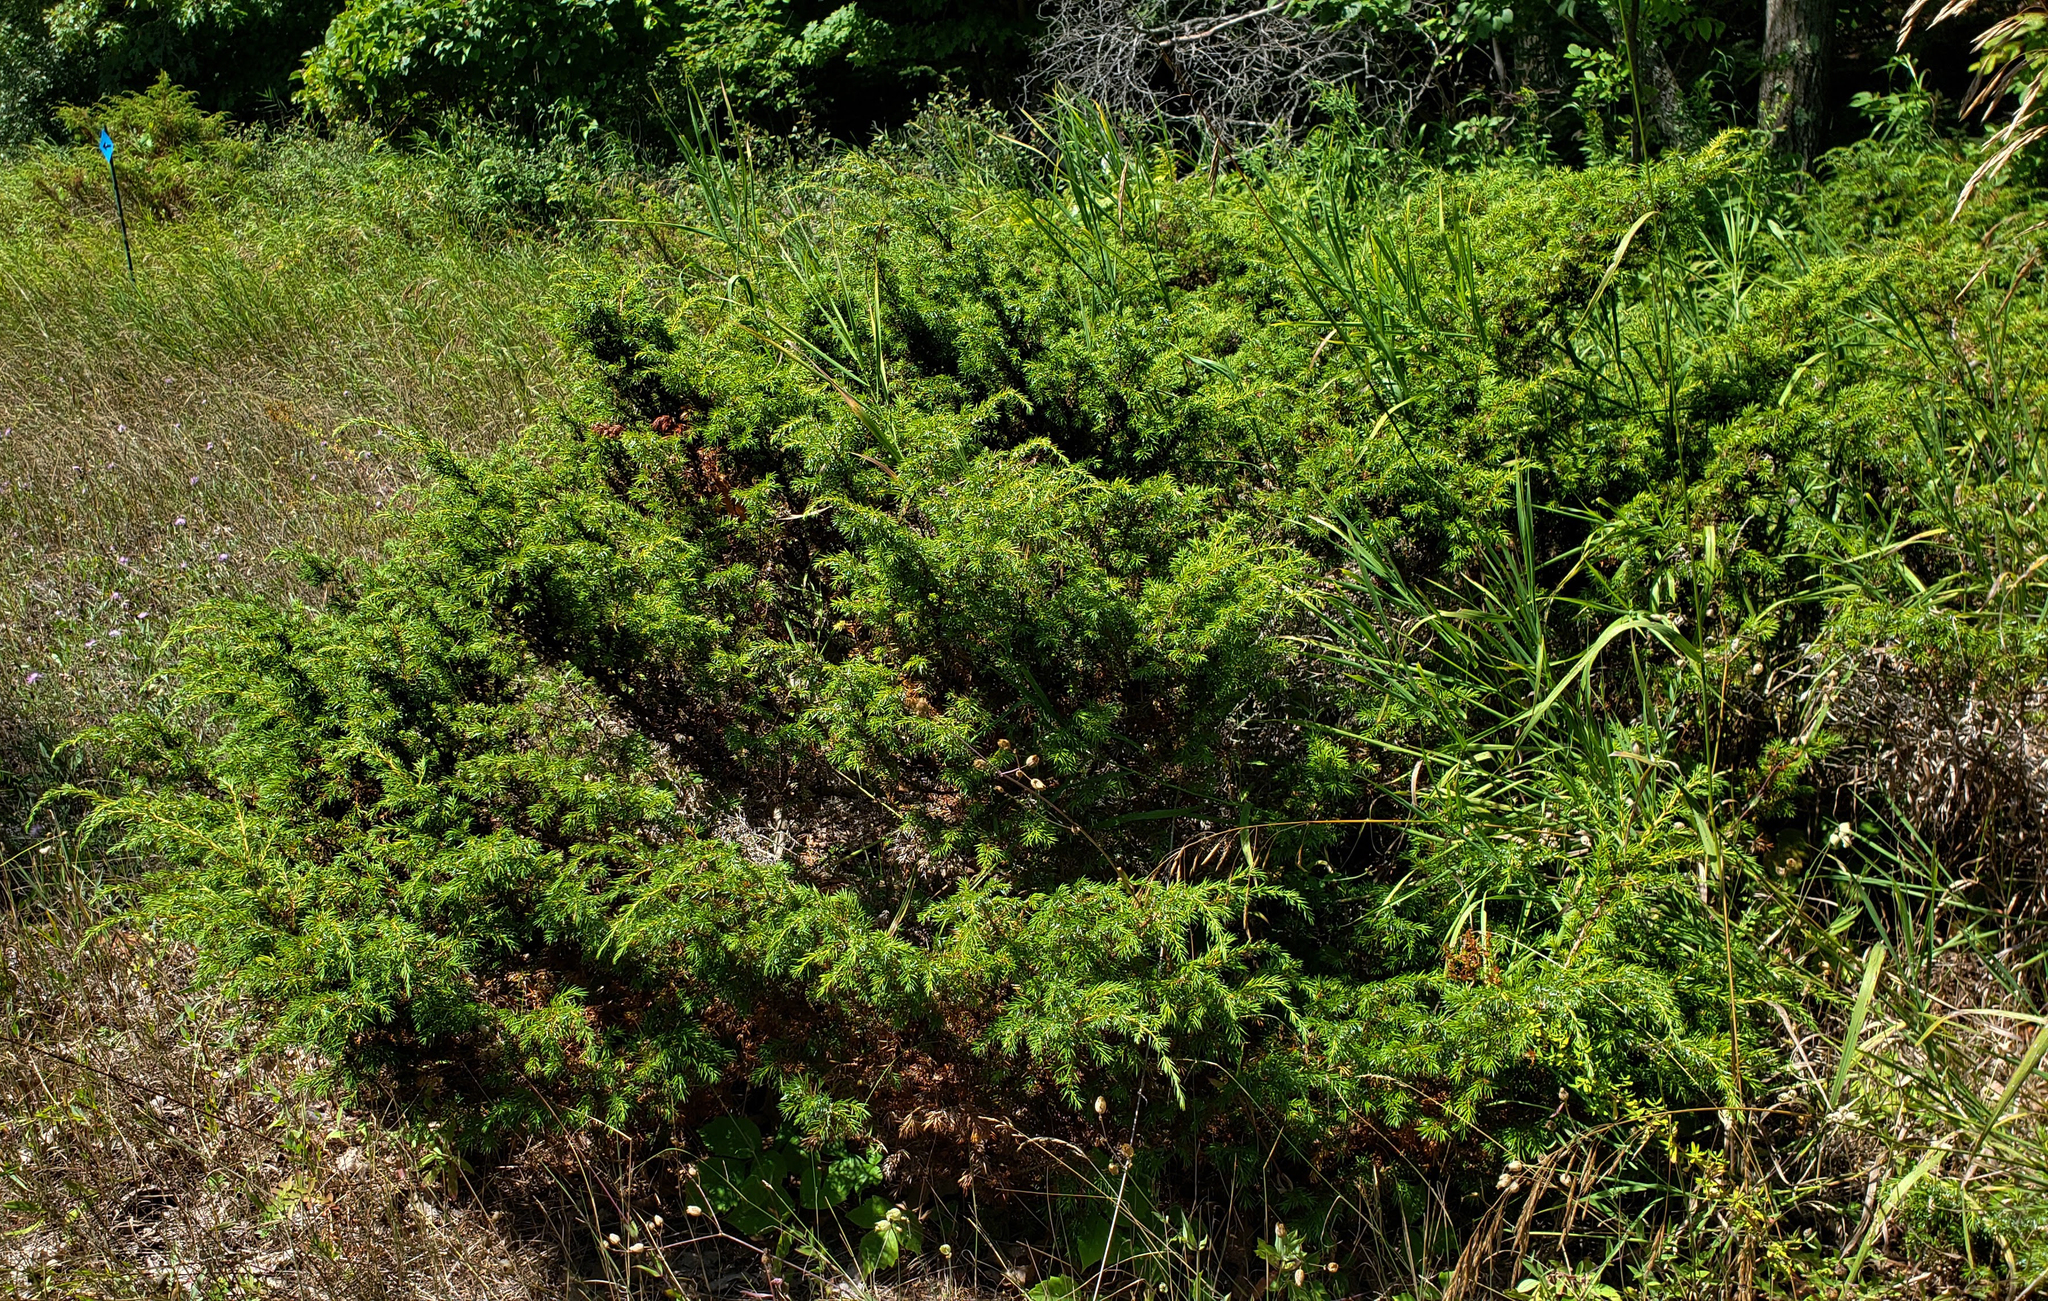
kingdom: Plantae
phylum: Tracheophyta
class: Pinopsida
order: Pinales
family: Cupressaceae
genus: Juniperus
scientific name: Juniperus communis
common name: Common juniper
